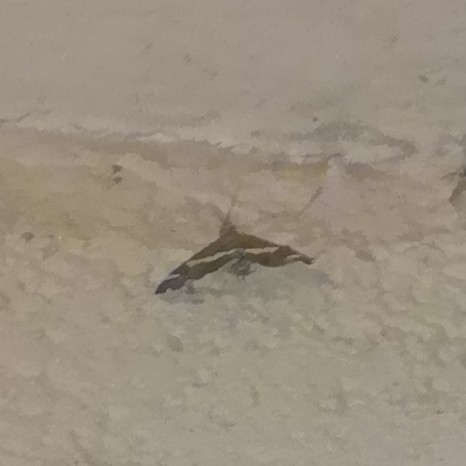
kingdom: Animalia
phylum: Arthropoda
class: Insecta
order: Lepidoptera
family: Crambidae
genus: Spoladea
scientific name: Spoladea recurvalis
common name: Beet webworm moth
